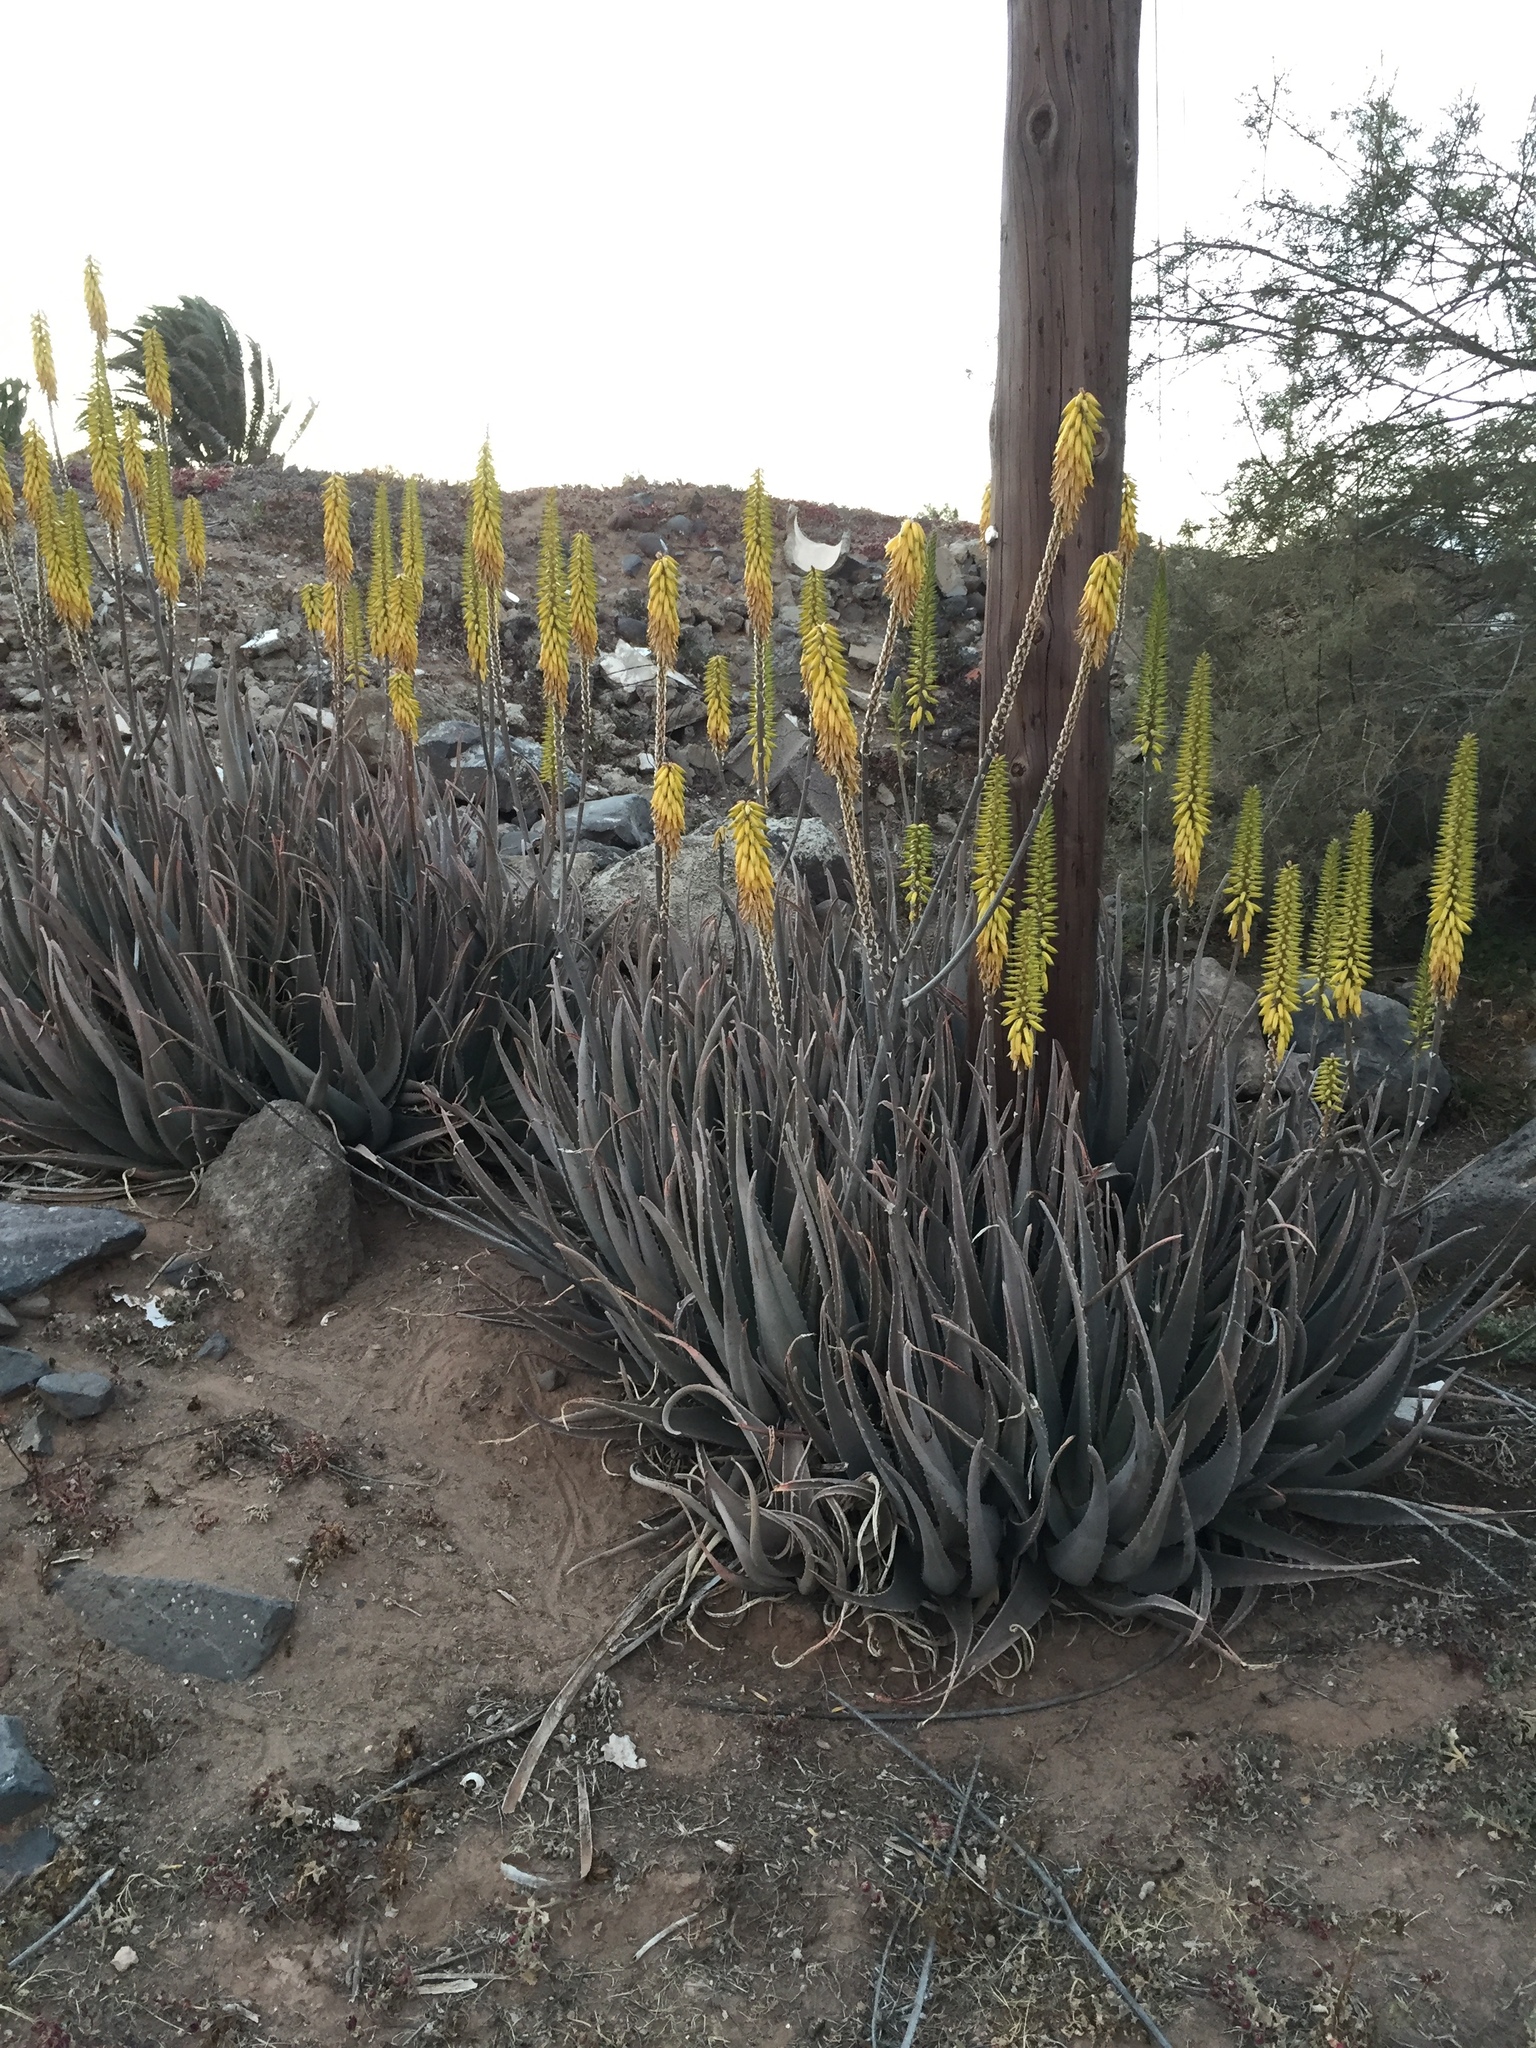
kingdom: Plantae
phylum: Tracheophyta
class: Liliopsida
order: Asparagales
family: Asphodelaceae
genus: Aloe
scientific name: Aloe vera
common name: Barbados aloe
